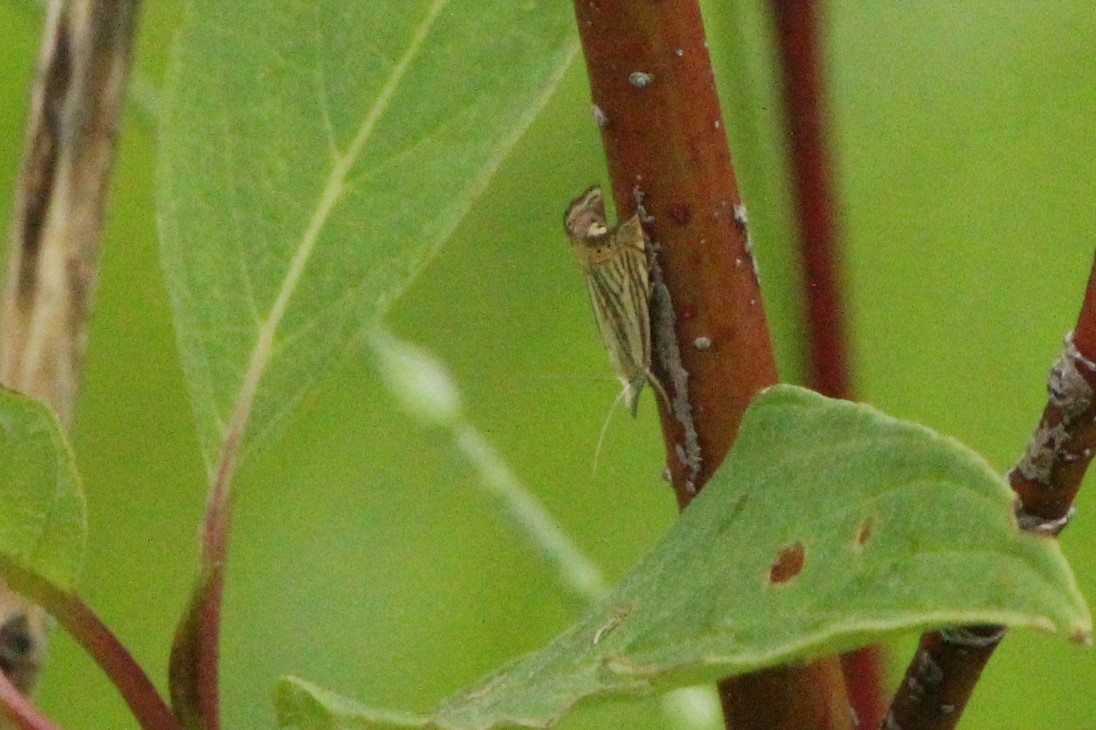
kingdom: Animalia
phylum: Arthropoda
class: Insecta
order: Lepidoptera
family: Crambidae
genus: Chrysoteuchia
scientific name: Chrysoteuchia topiarius
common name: Topiary grass-veneer
